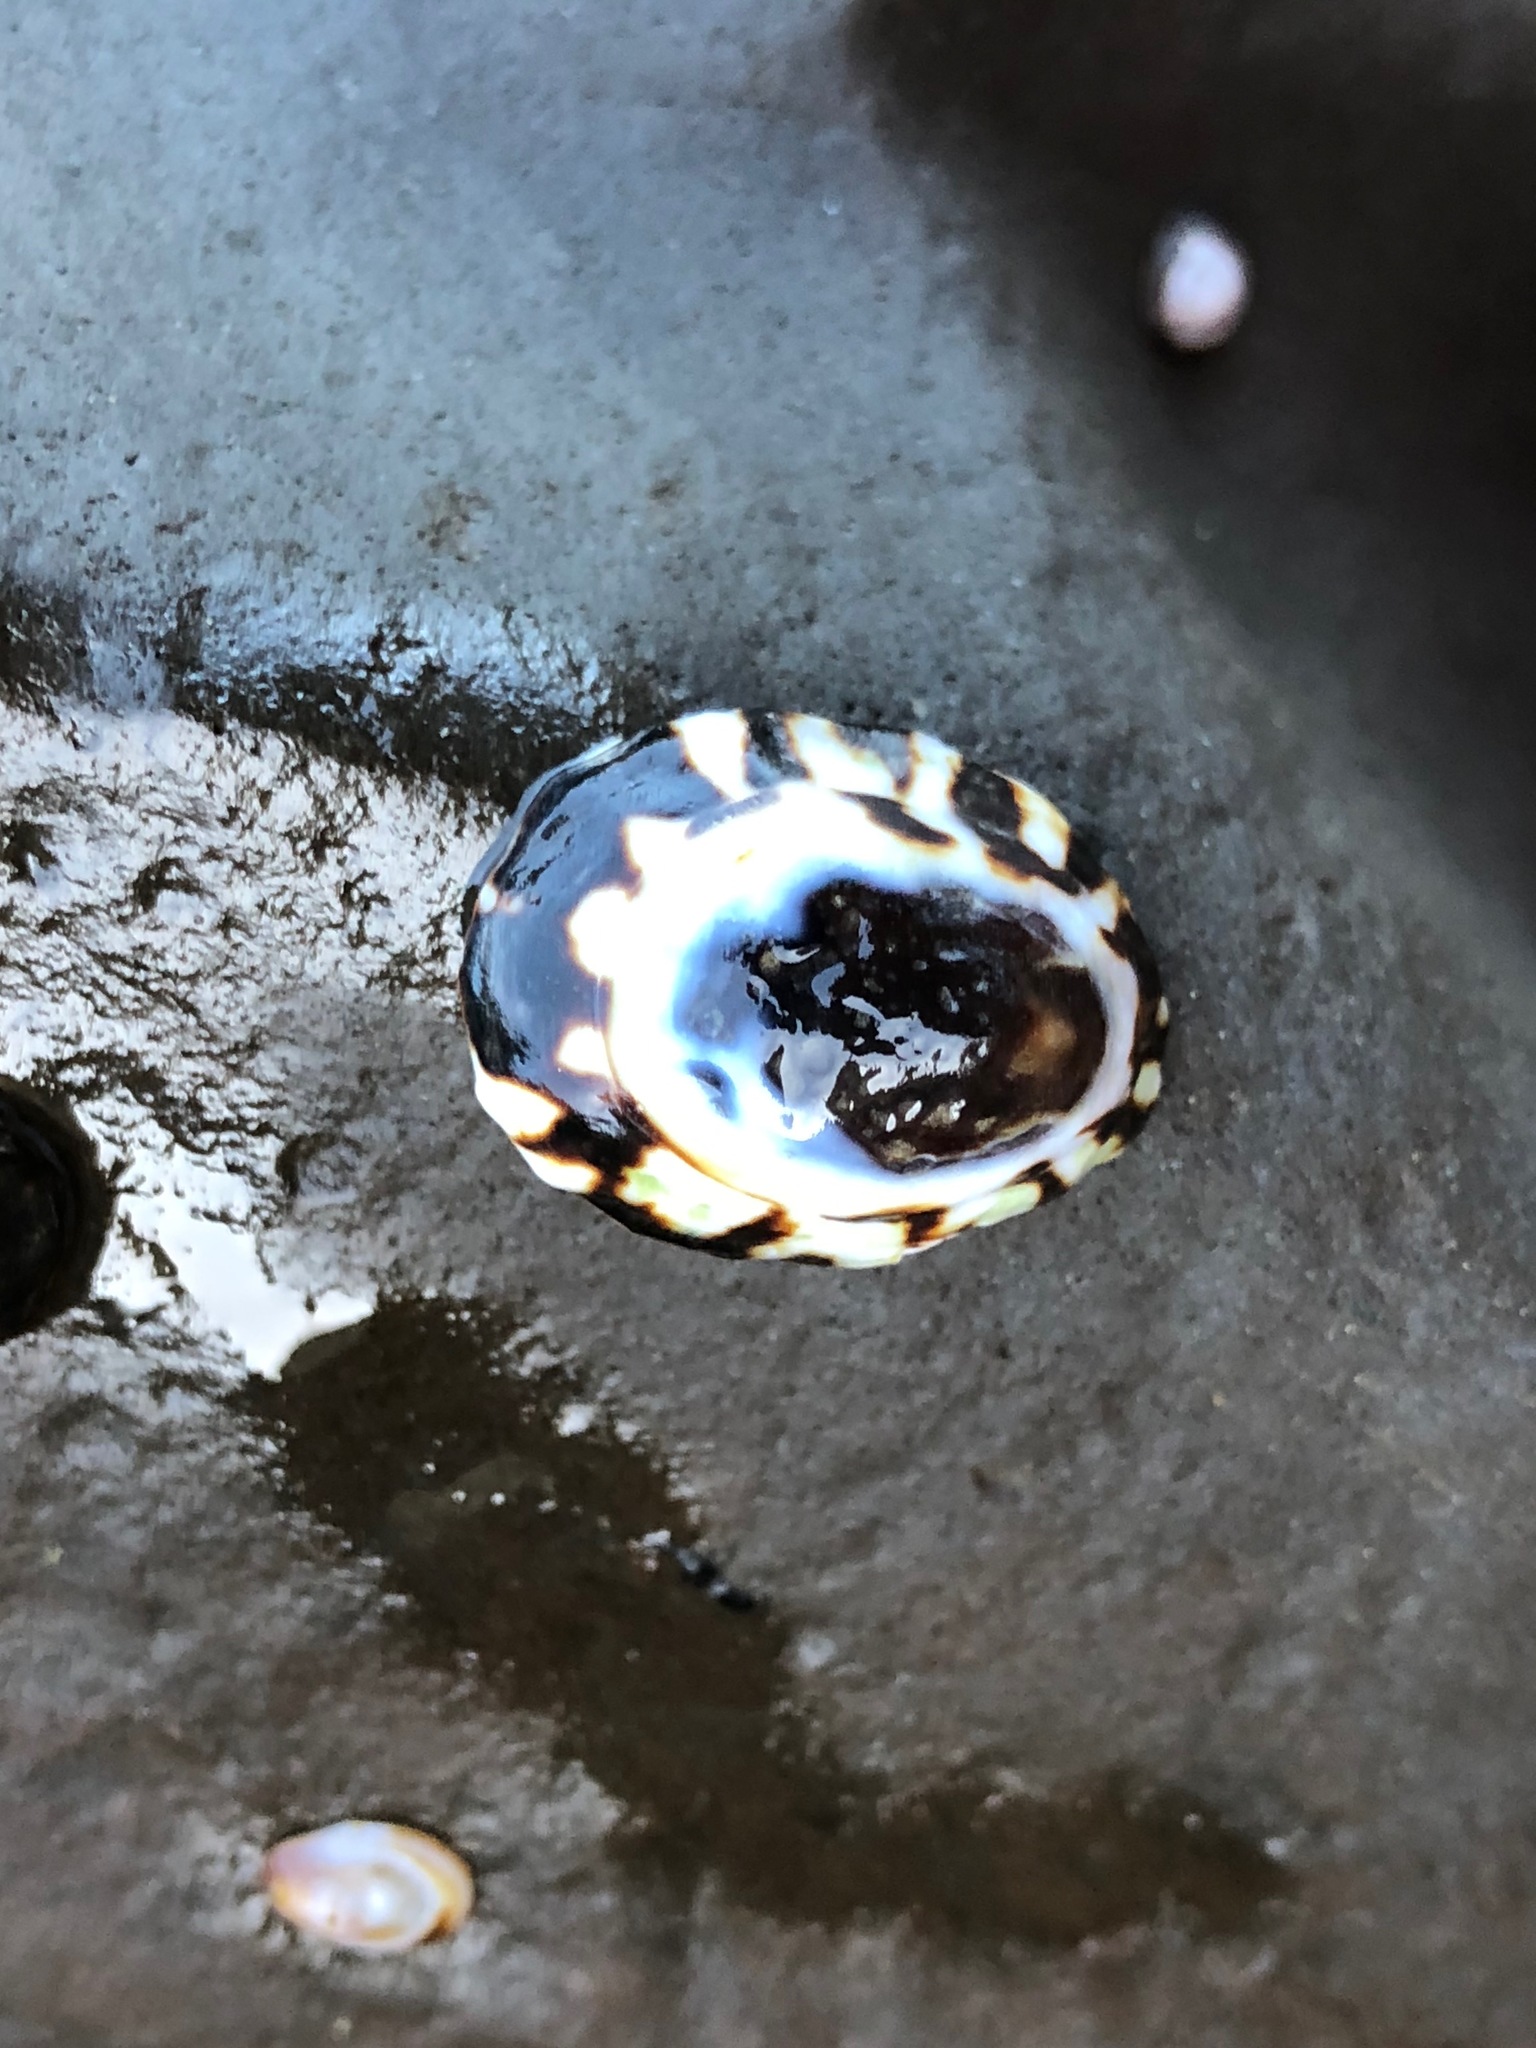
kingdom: Animalia
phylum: Mollusca
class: Gastropoda
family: Lottiidae
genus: Lottia
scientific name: Lottia
